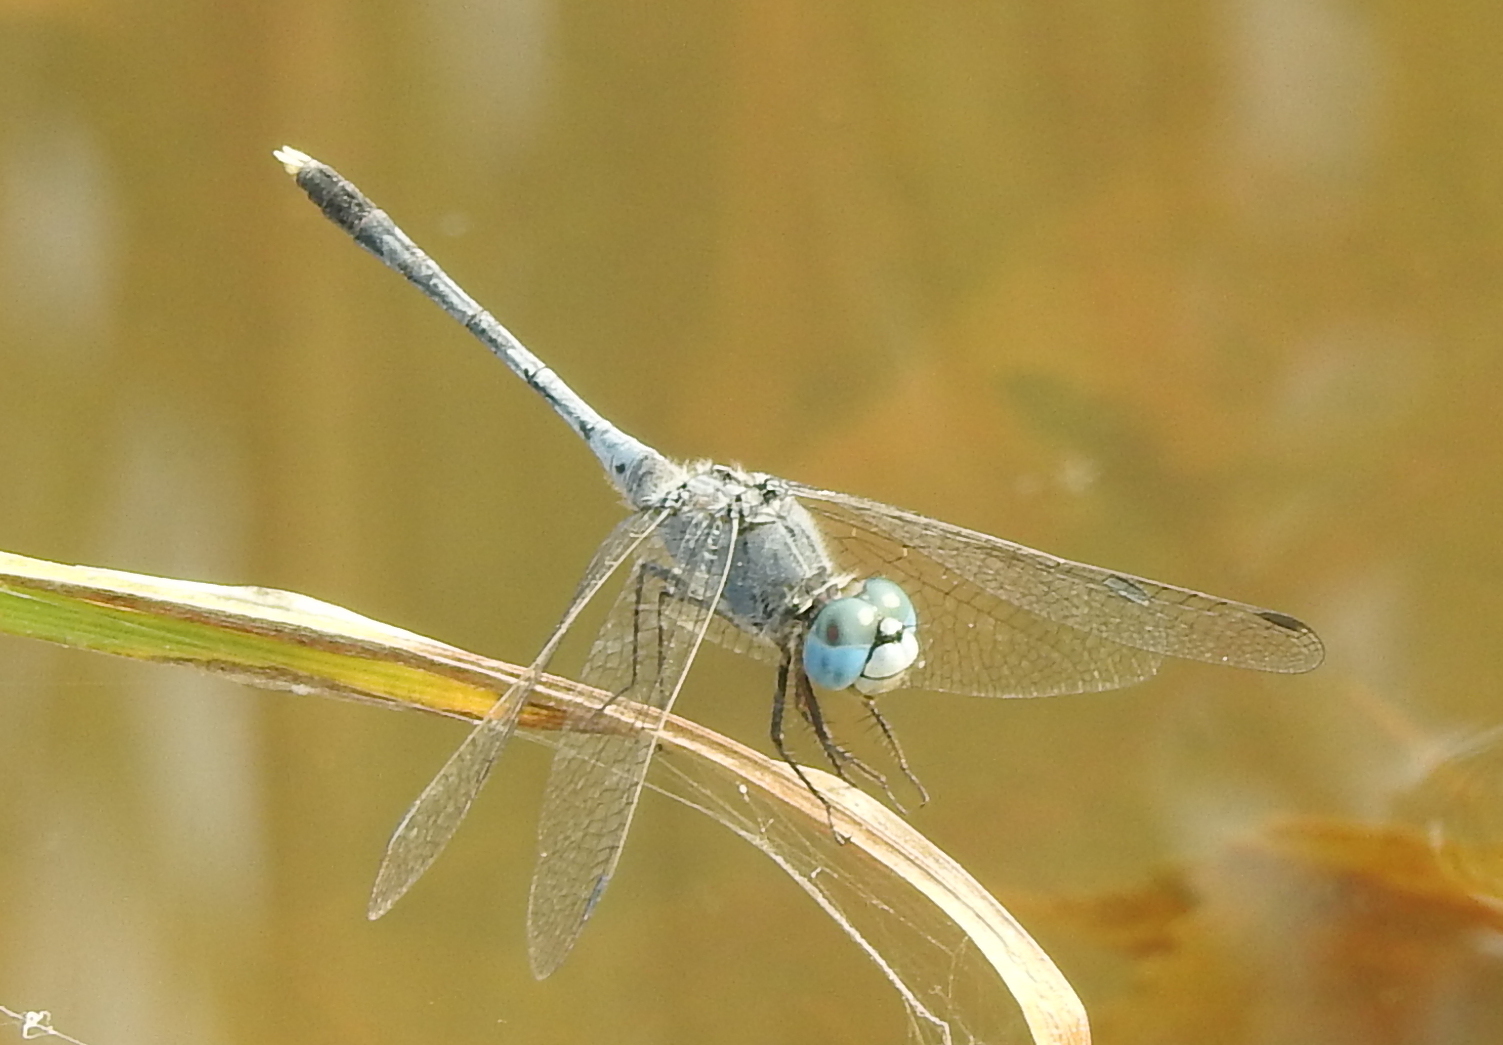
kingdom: Animalia
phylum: Arthropoda
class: Insecta
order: Odonata
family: Libellulidae
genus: Diplacodes
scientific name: Diplacodes trivialis
